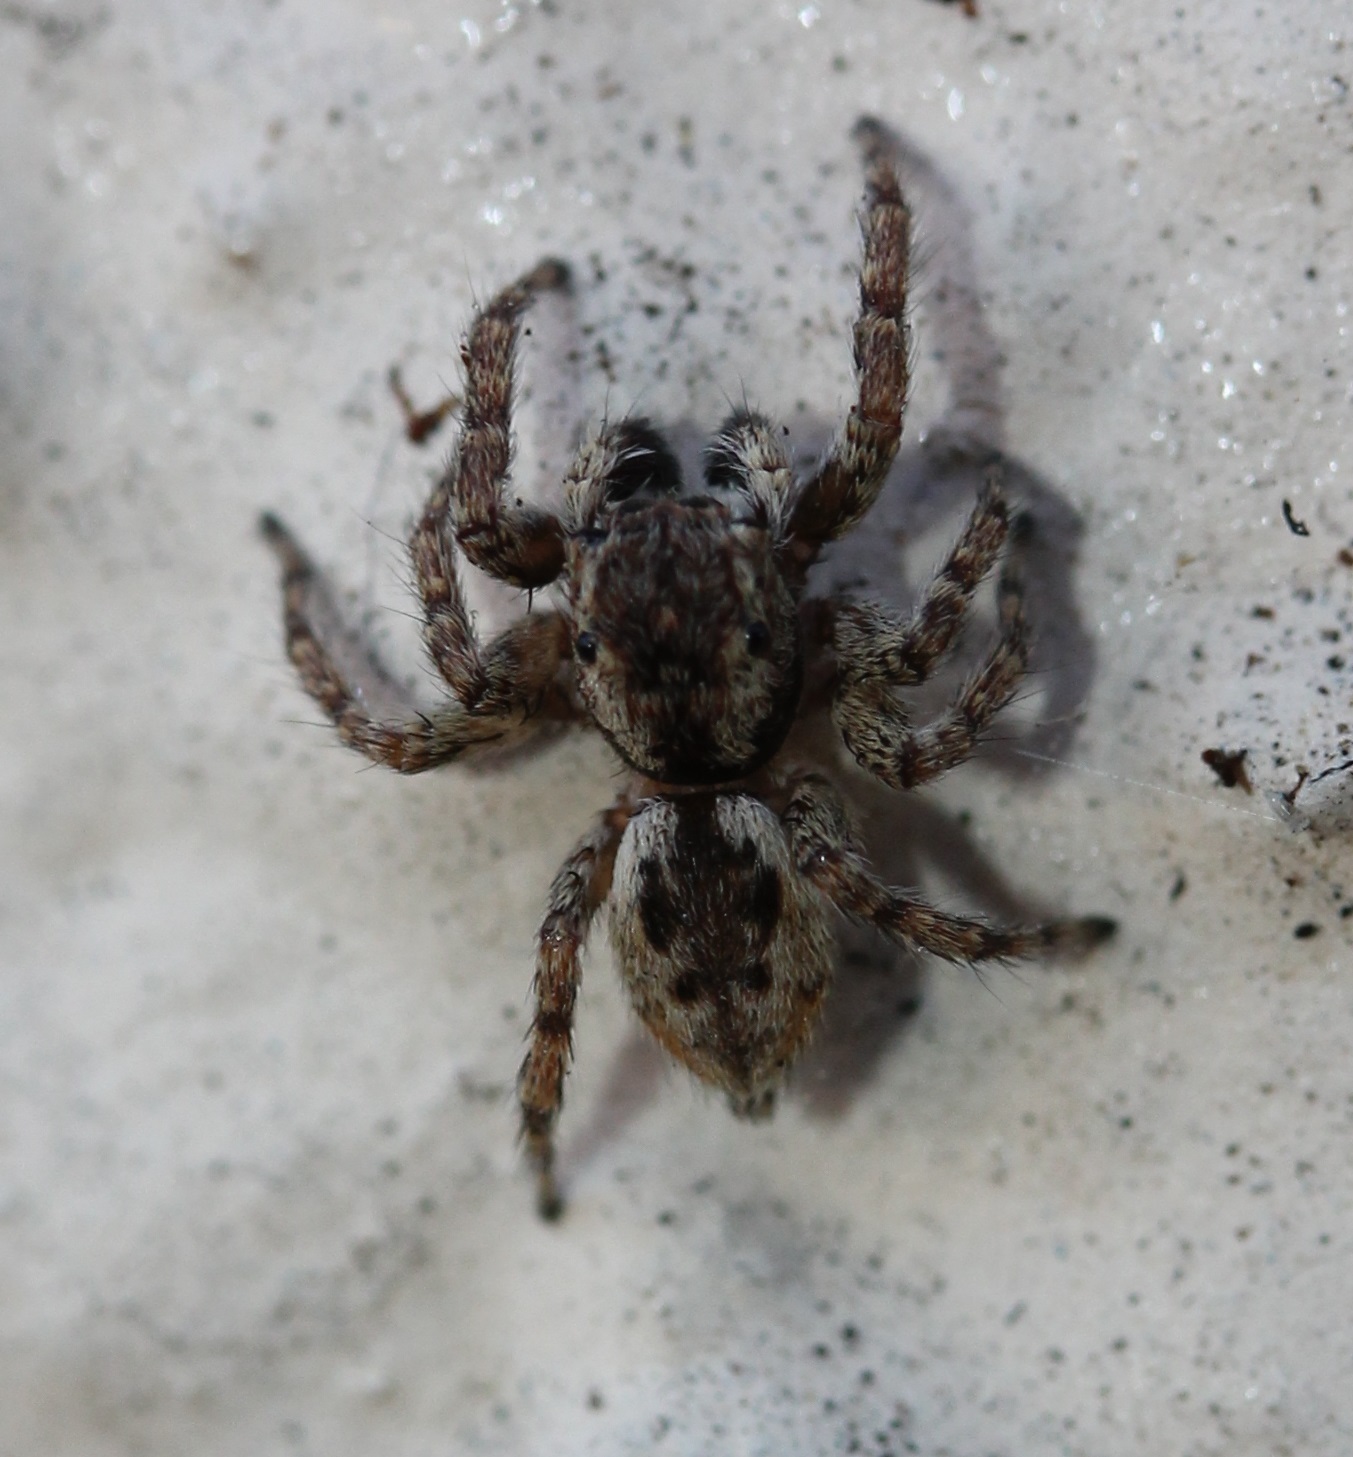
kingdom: Animalia
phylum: Arthropoda
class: Arachnida
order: Araneae
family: Salticidae
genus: Mexigonus
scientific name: Mexigonus minutus
